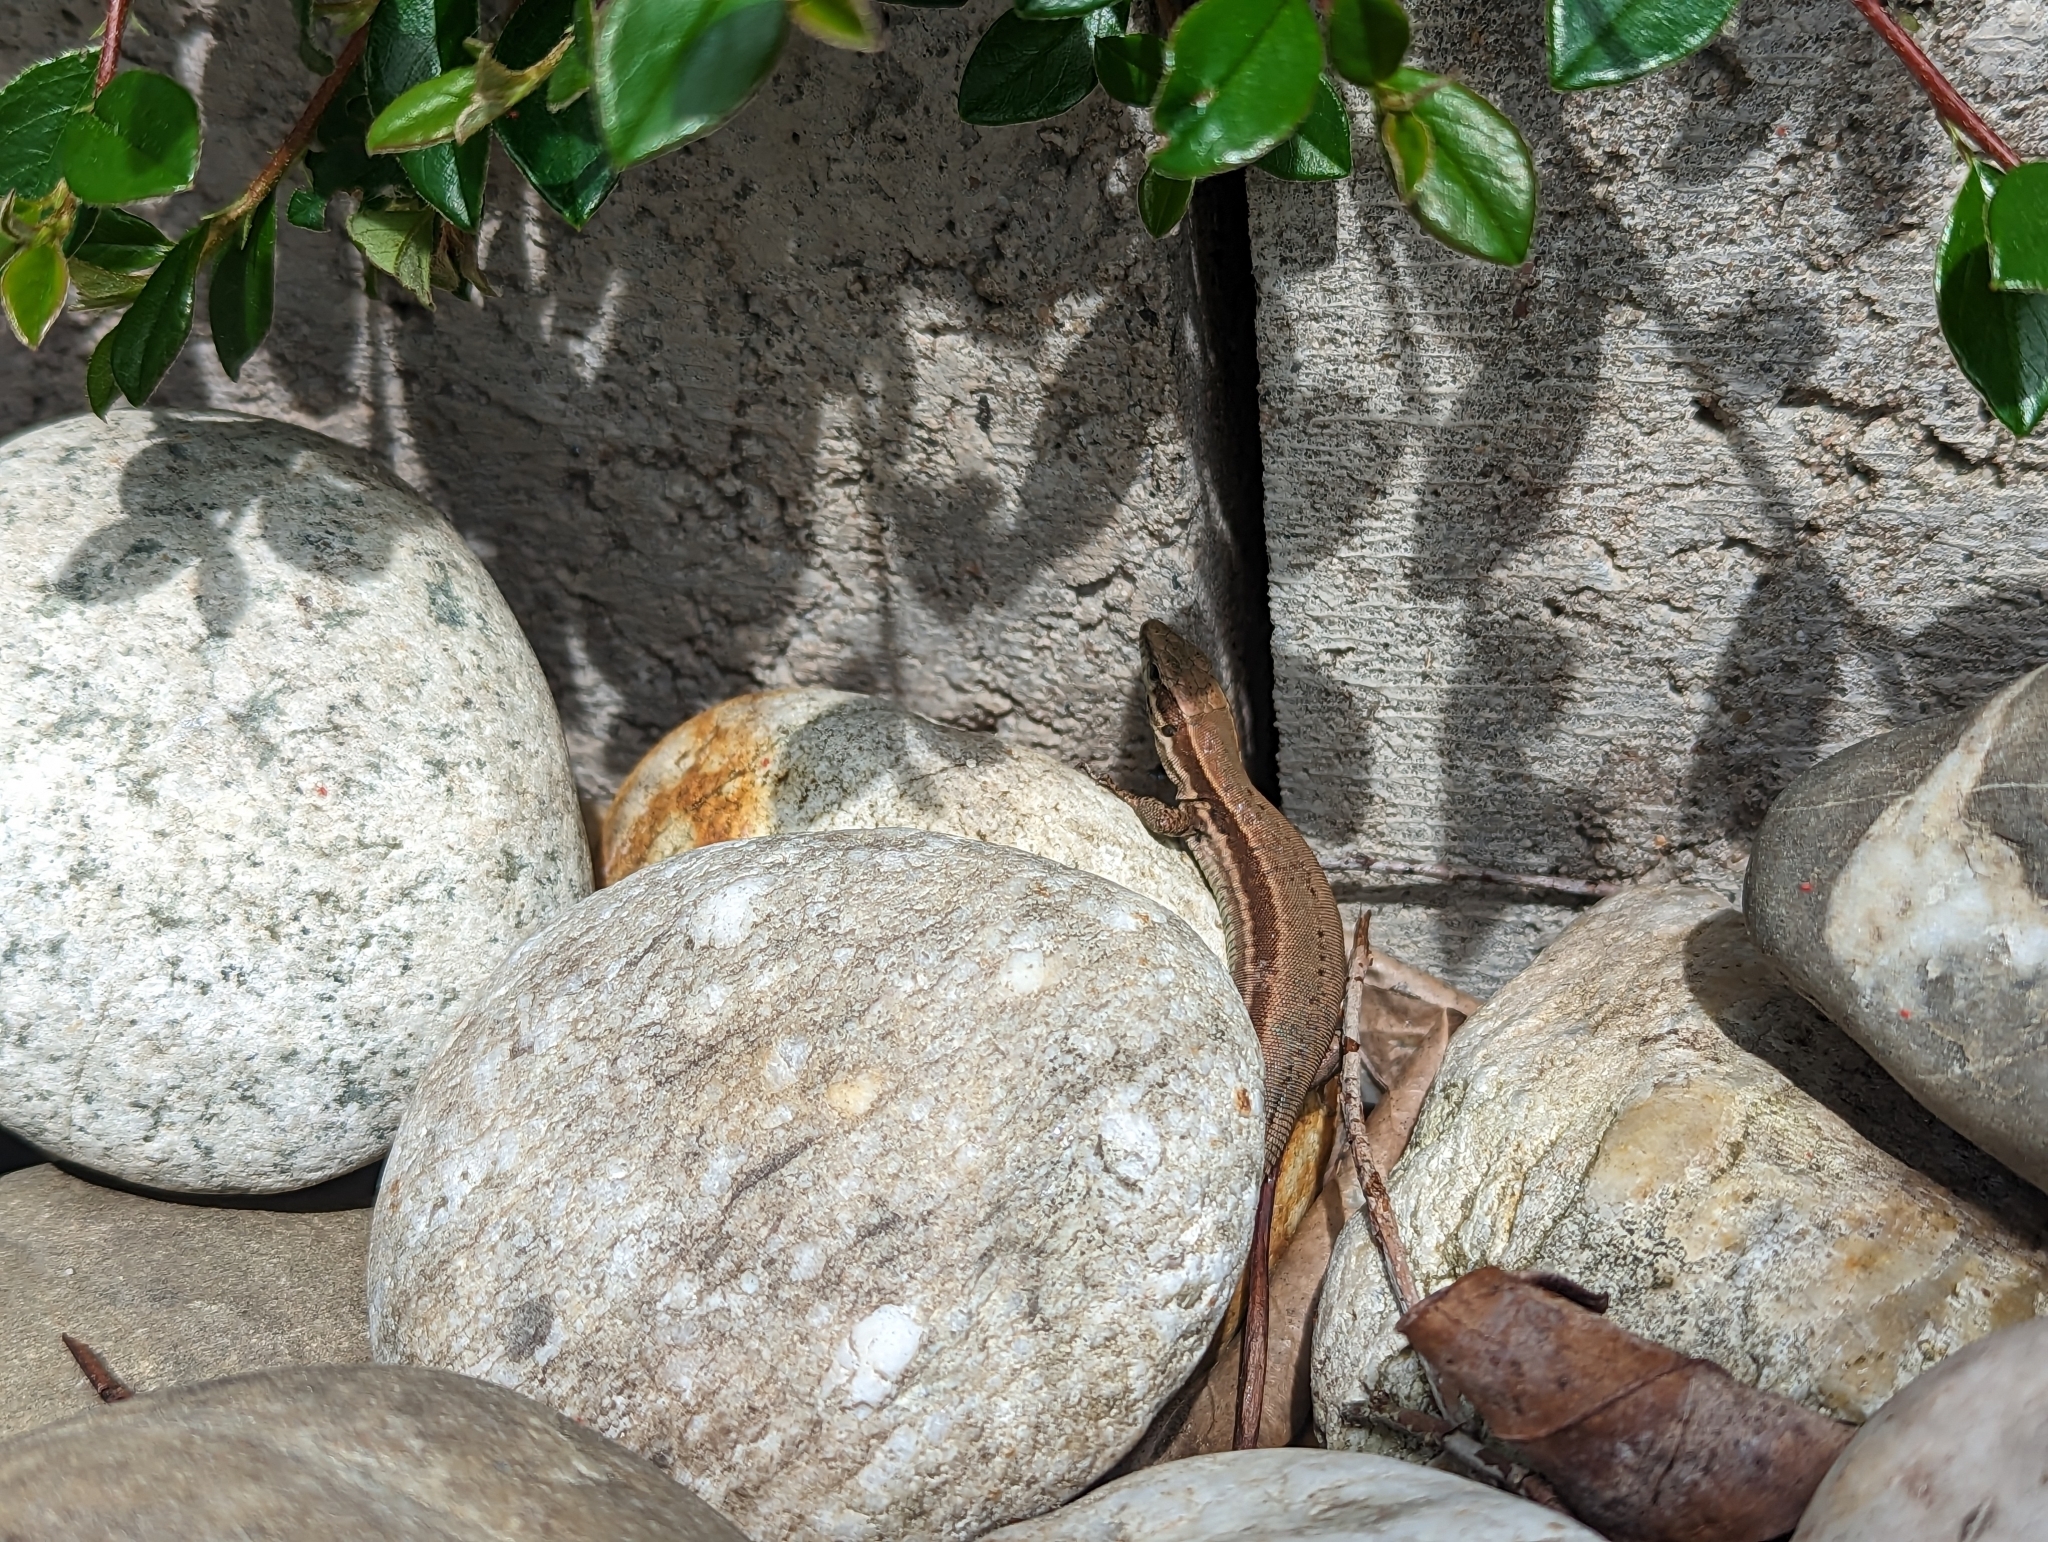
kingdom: Animalia
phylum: Chordata
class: Squamata
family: Lacertidae
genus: Podarcis
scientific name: Podarcis muralis
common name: Common wall lizard
